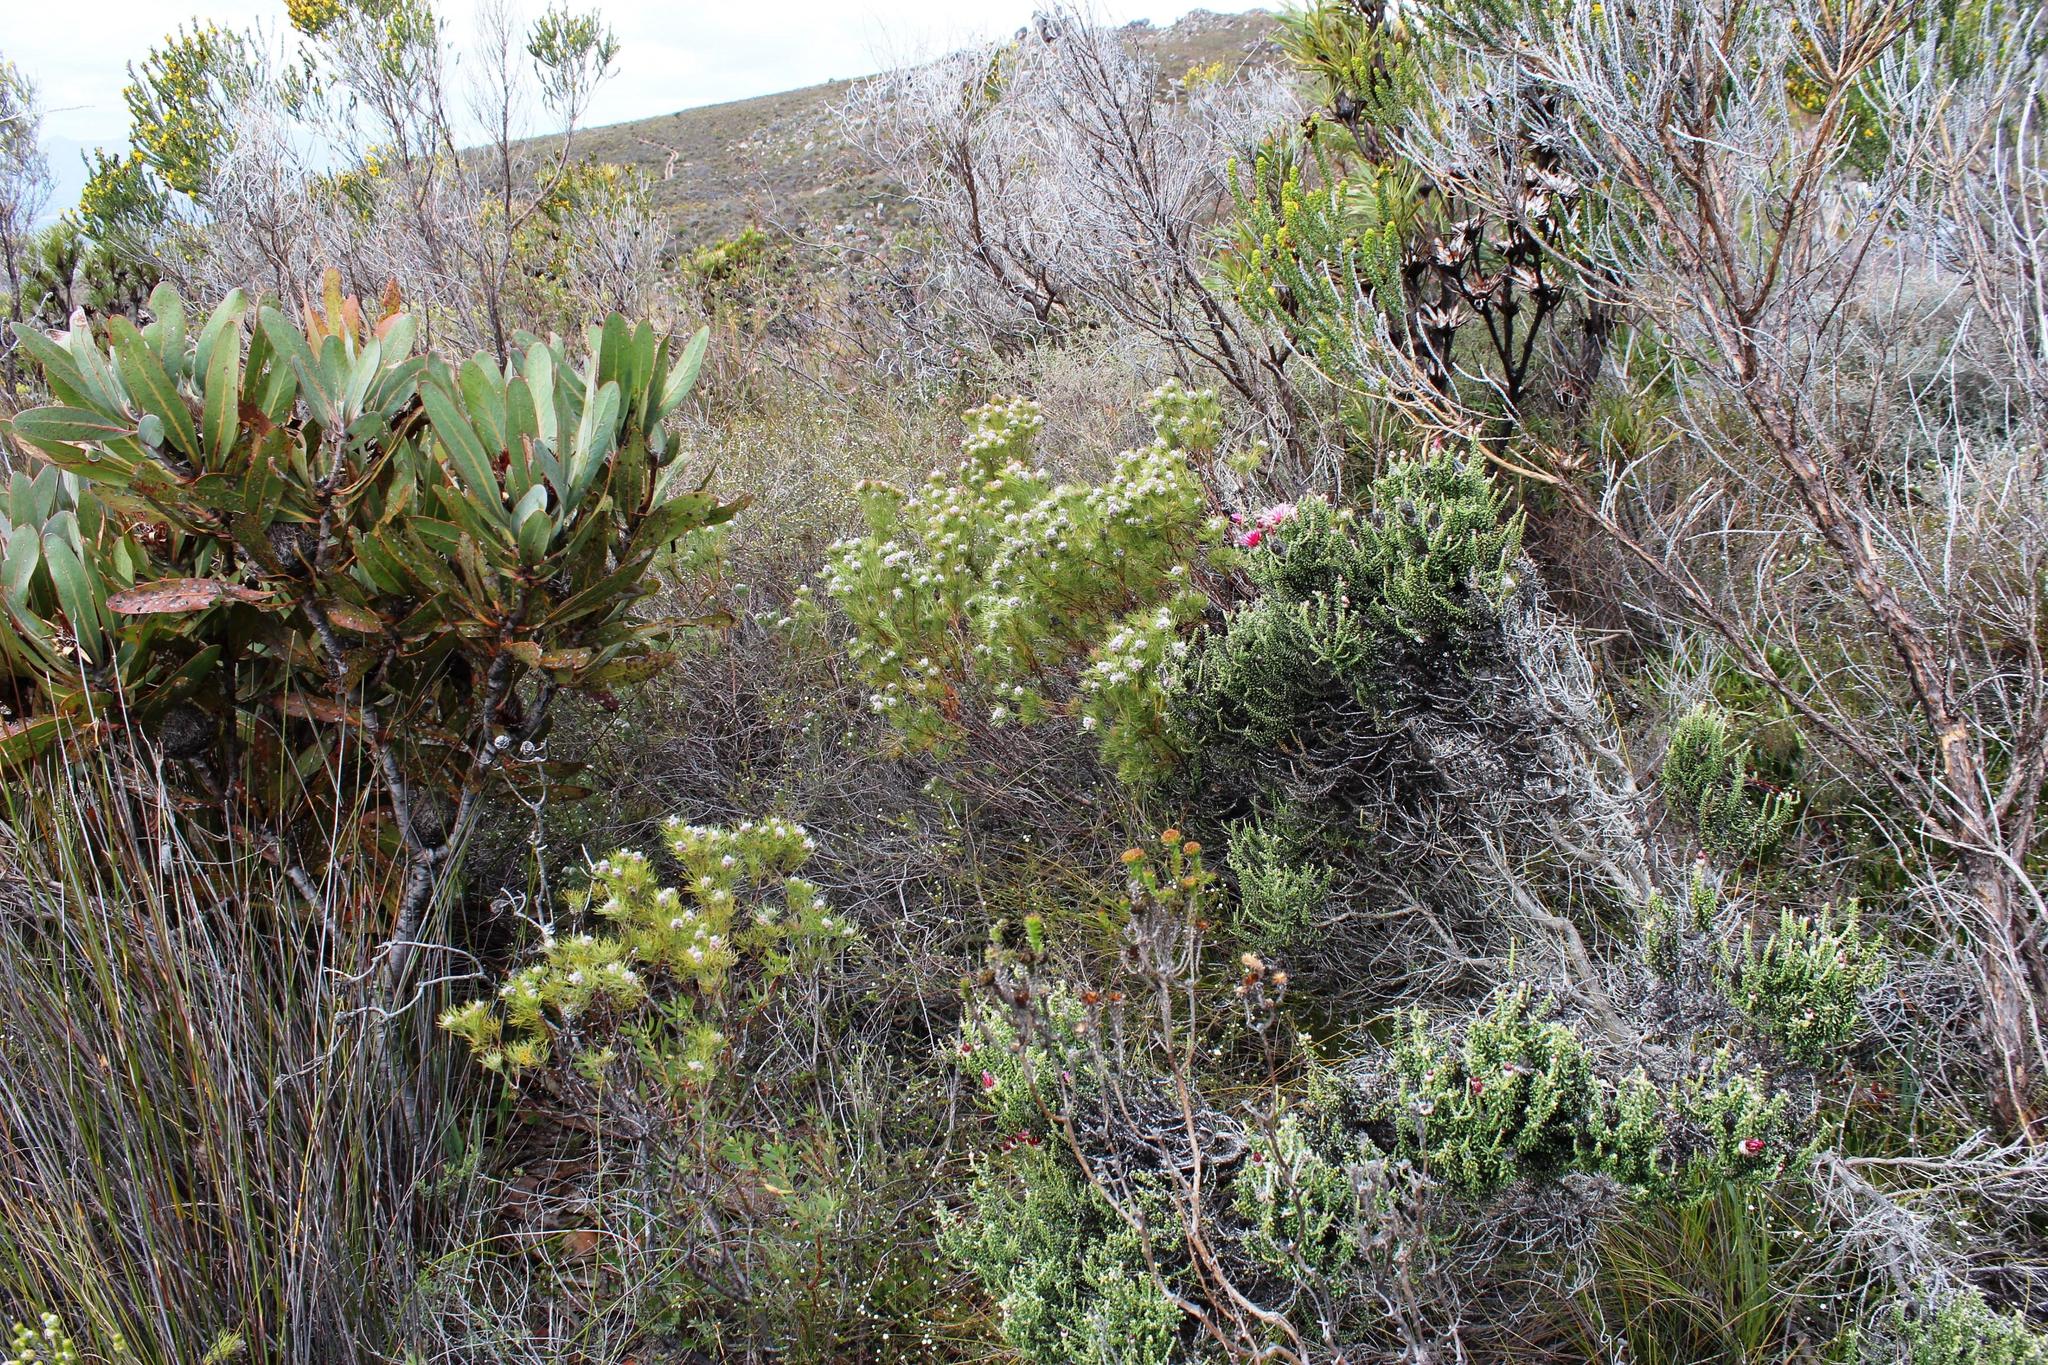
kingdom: Plantae
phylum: Tracheophyta
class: Magnoliopsida
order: Proteales
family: Proteaceae
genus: Paranomus
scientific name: Paranomus capitatus
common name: Fine-leaf sceptre
